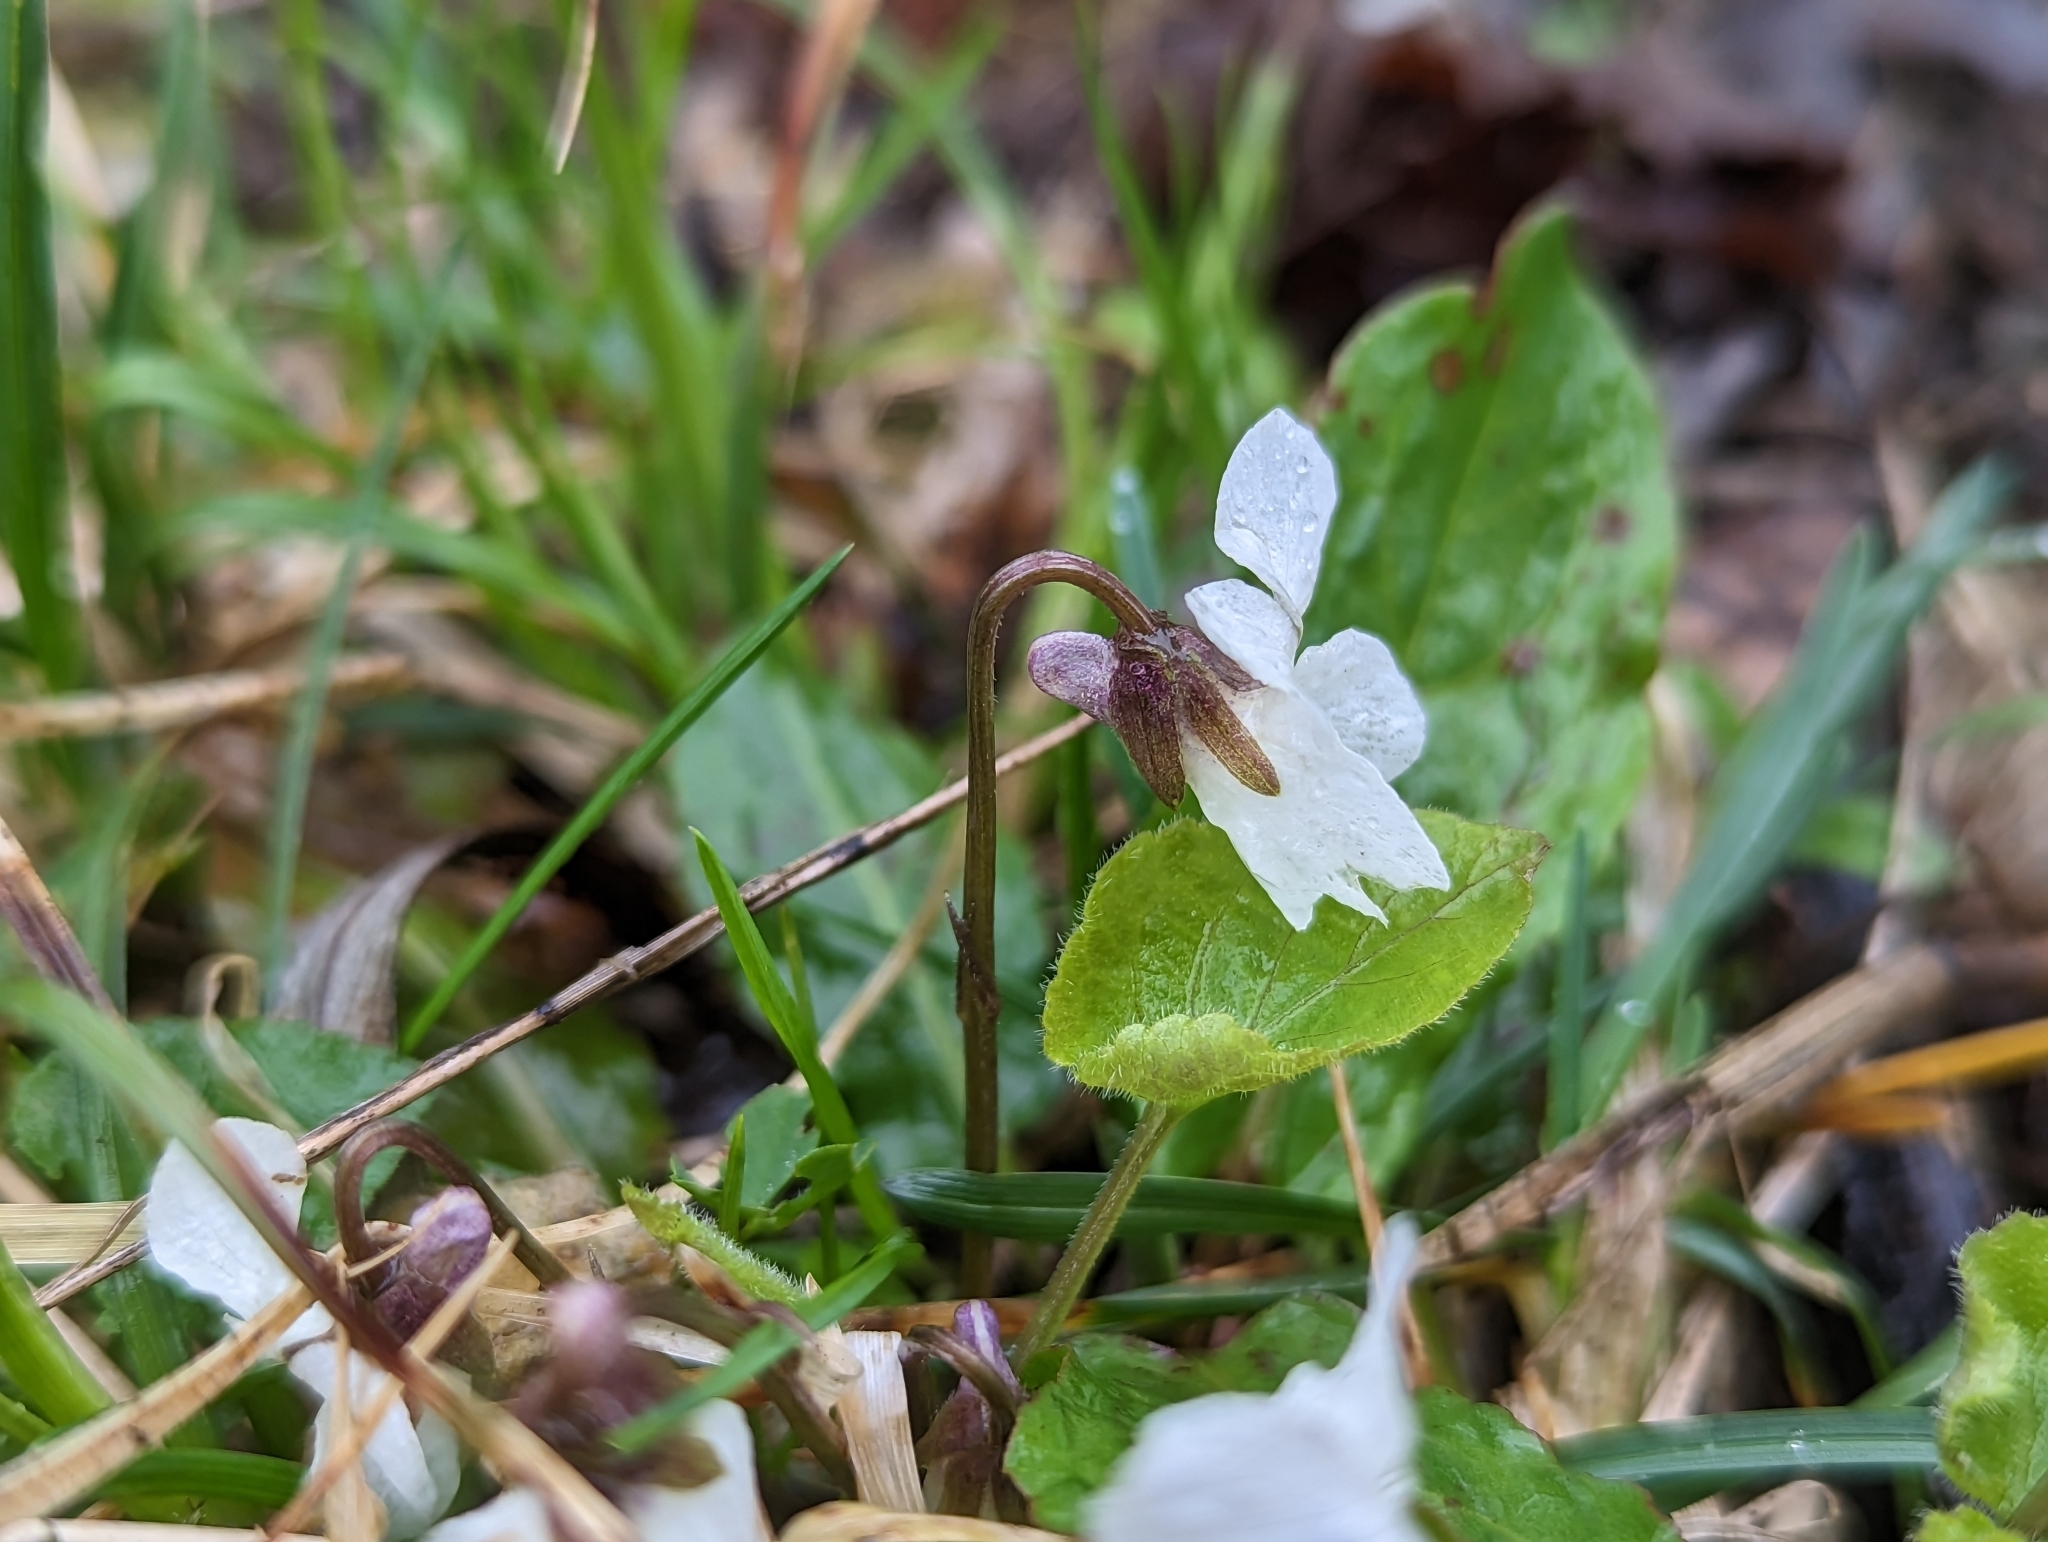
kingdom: Plantae
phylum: Tracheophyta
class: Magnoliopsida
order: Malpighiales
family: Violaceae
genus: Viola
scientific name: Viola alba
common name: White violet
